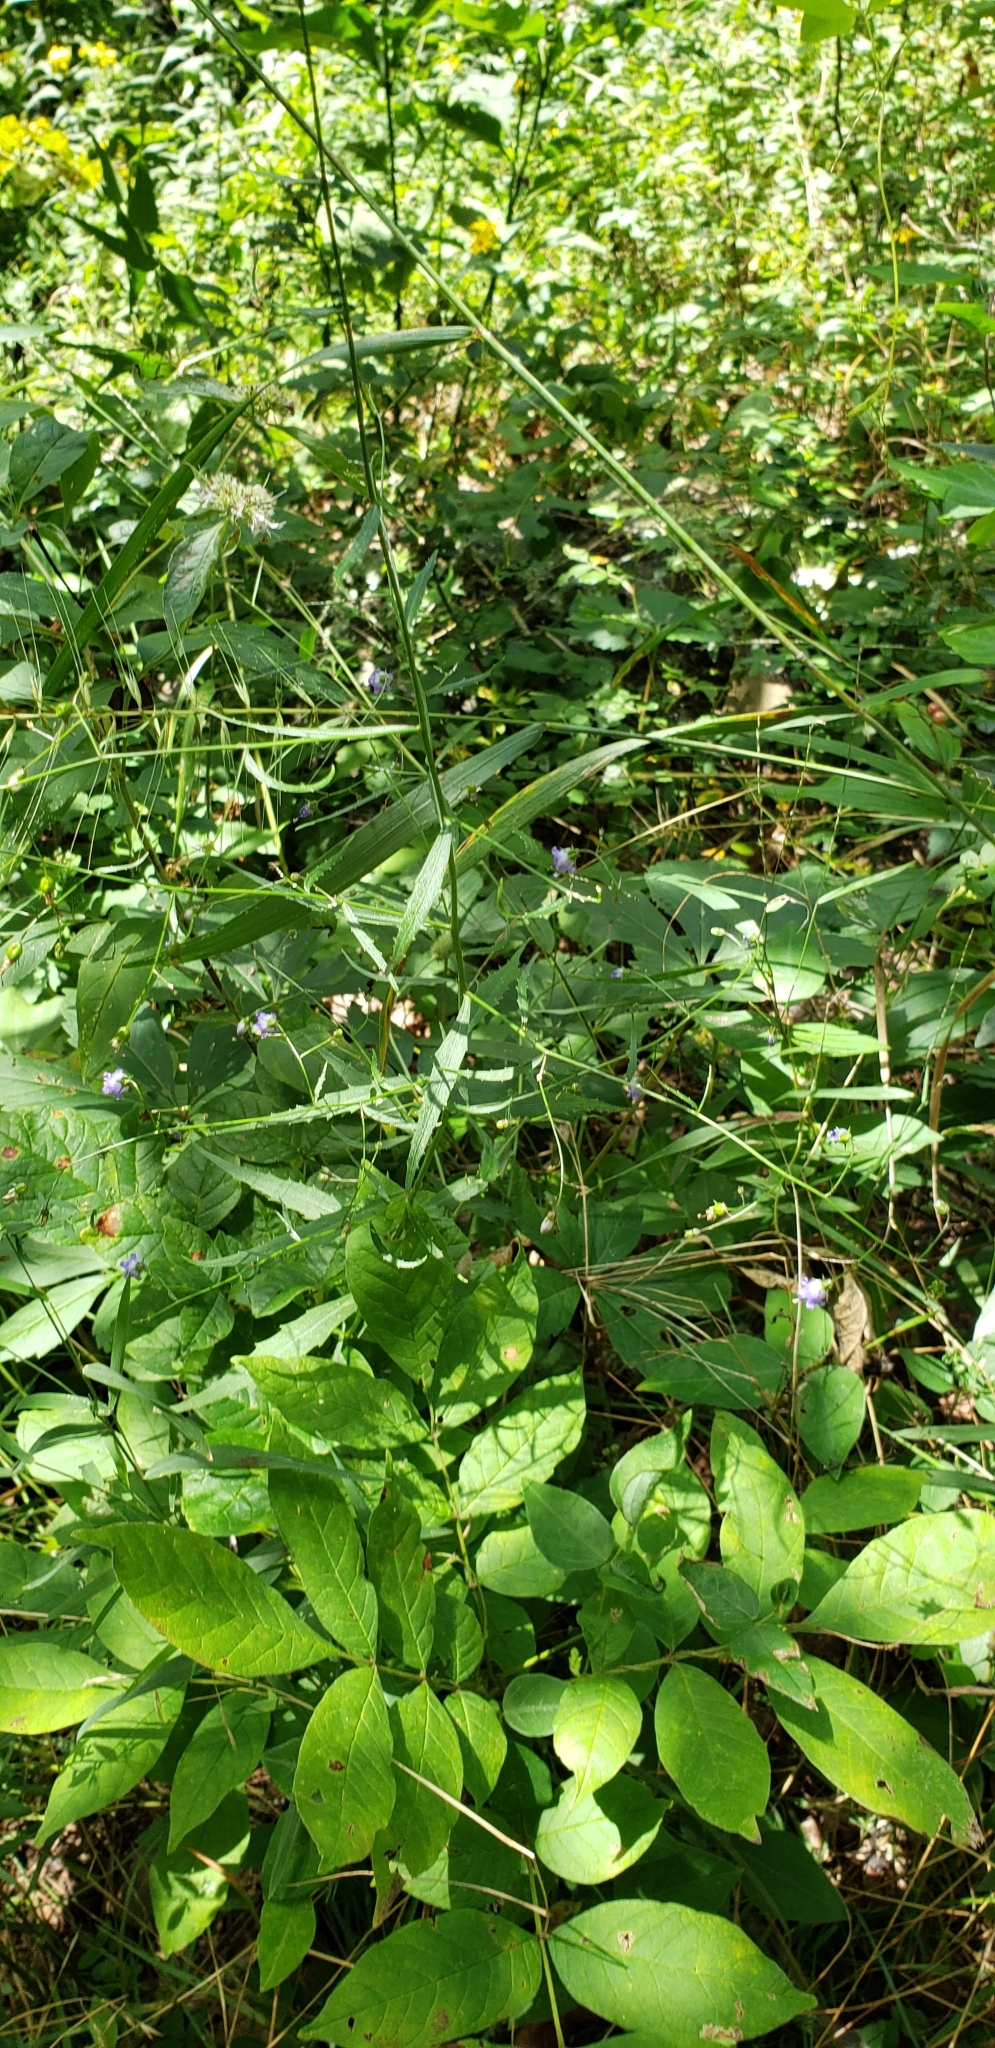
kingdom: Plantae
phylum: Tracheophyta
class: Magnoliopsida
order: Asterales
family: Campanulaceae
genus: Campanula
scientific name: Campanula divaricata
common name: Appalachian bellflower
